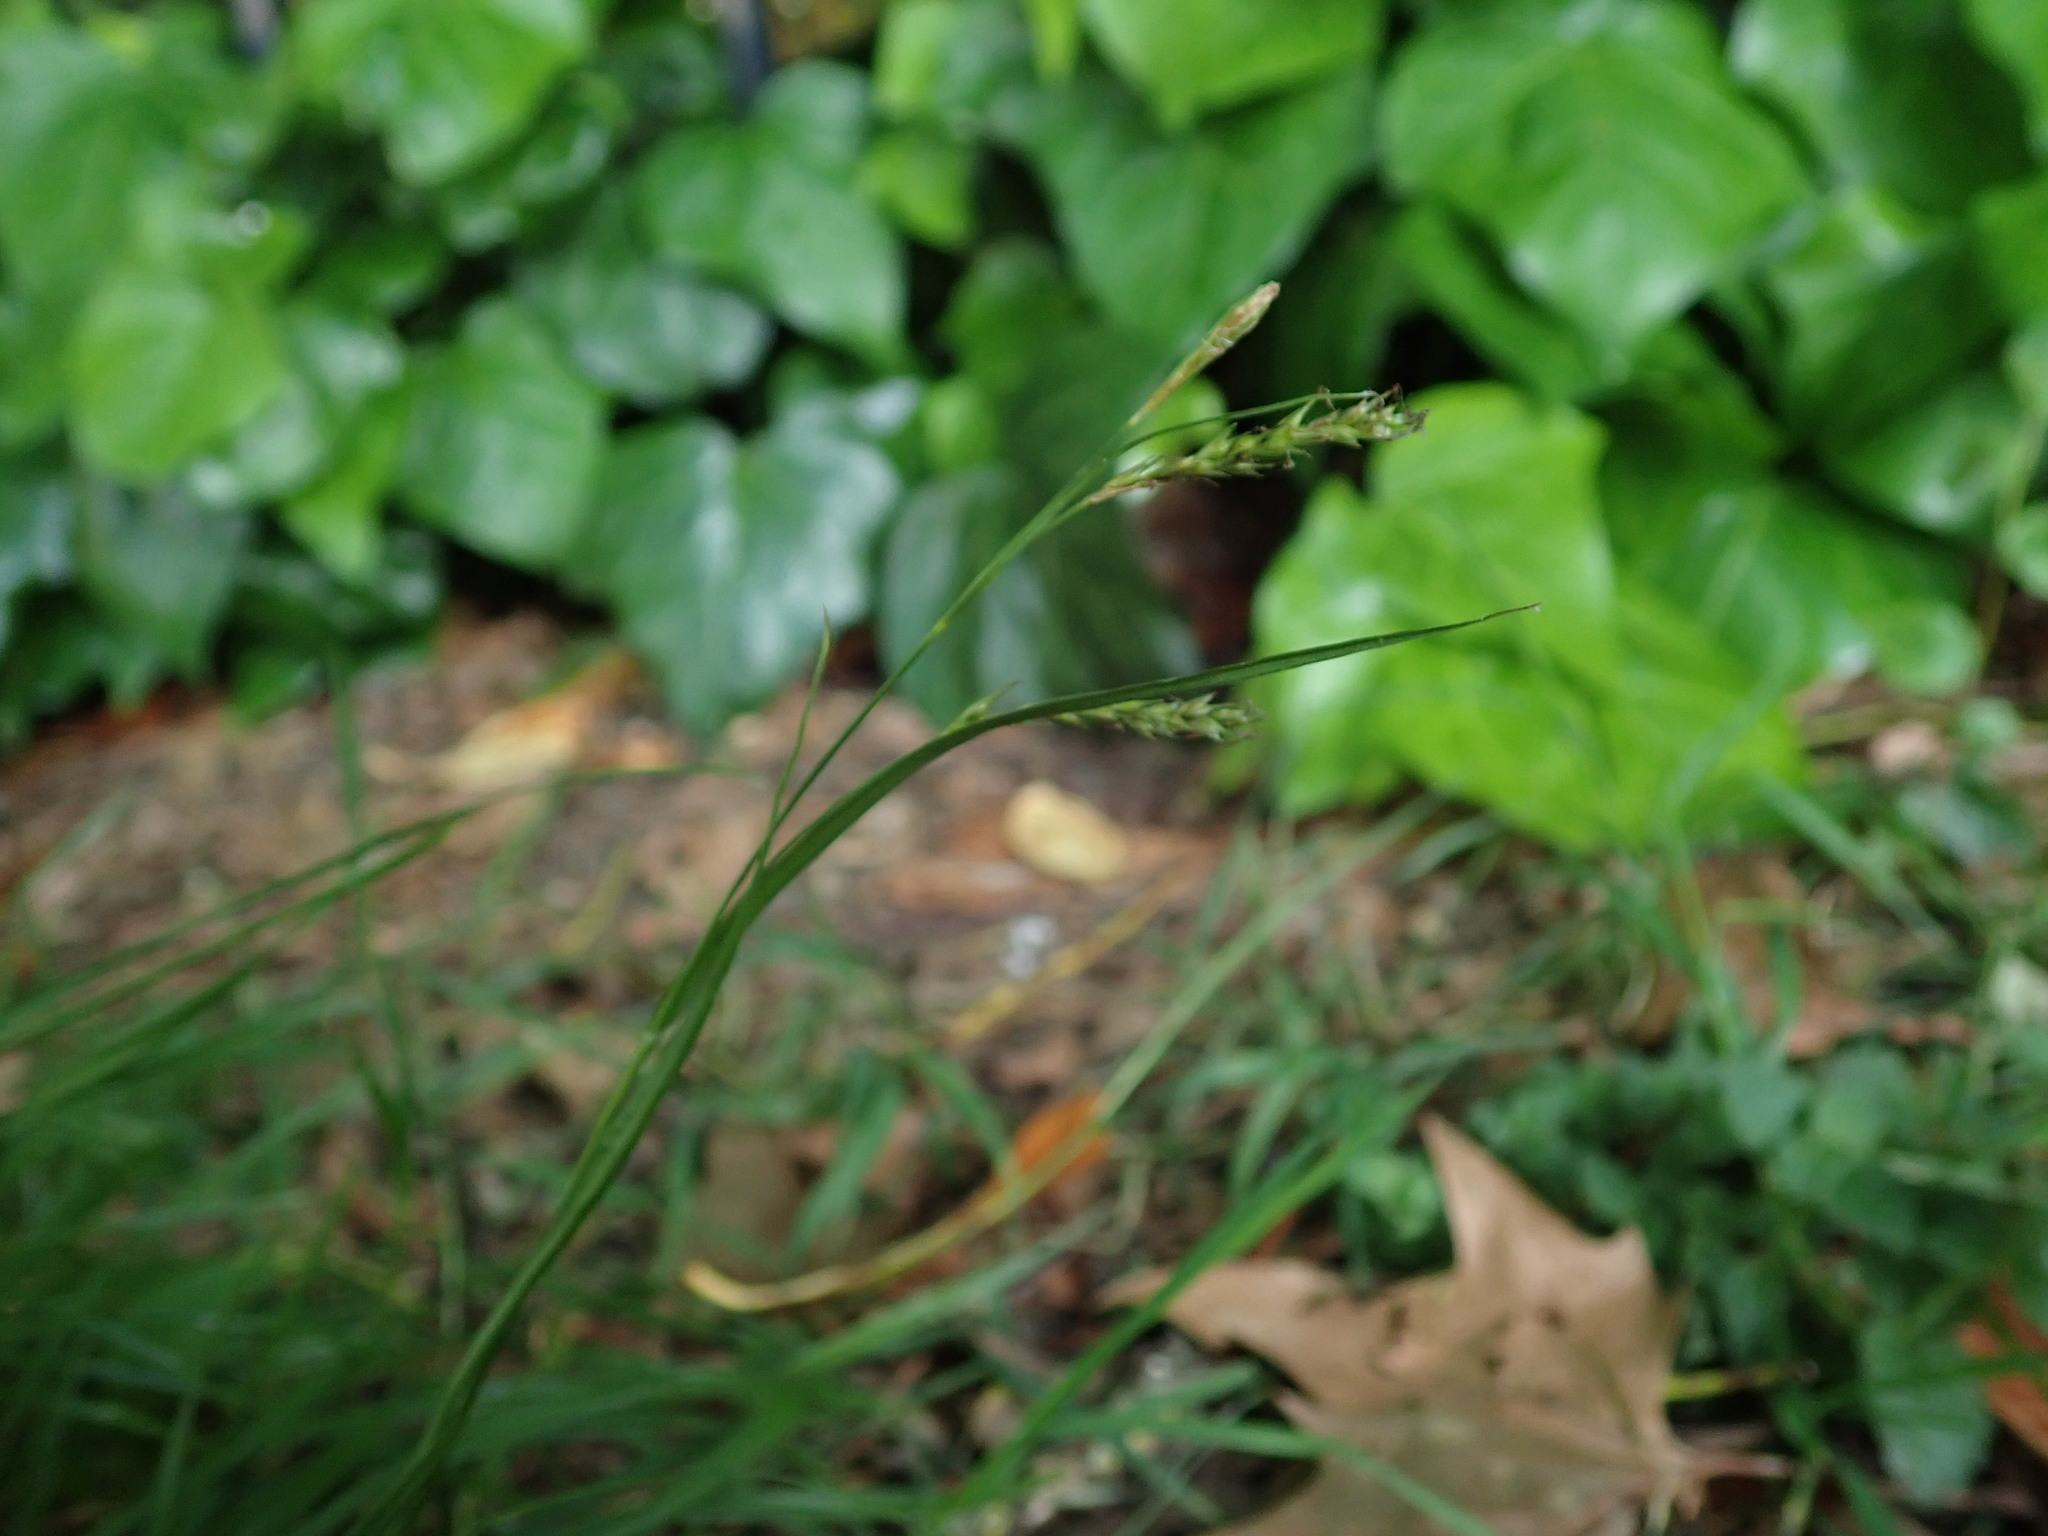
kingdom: Plantae
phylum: Tracheophyta
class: Liliopsida
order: Poales
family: Cyperaceae
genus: Carex
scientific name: Carex sylvatica
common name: Wood-sedge
